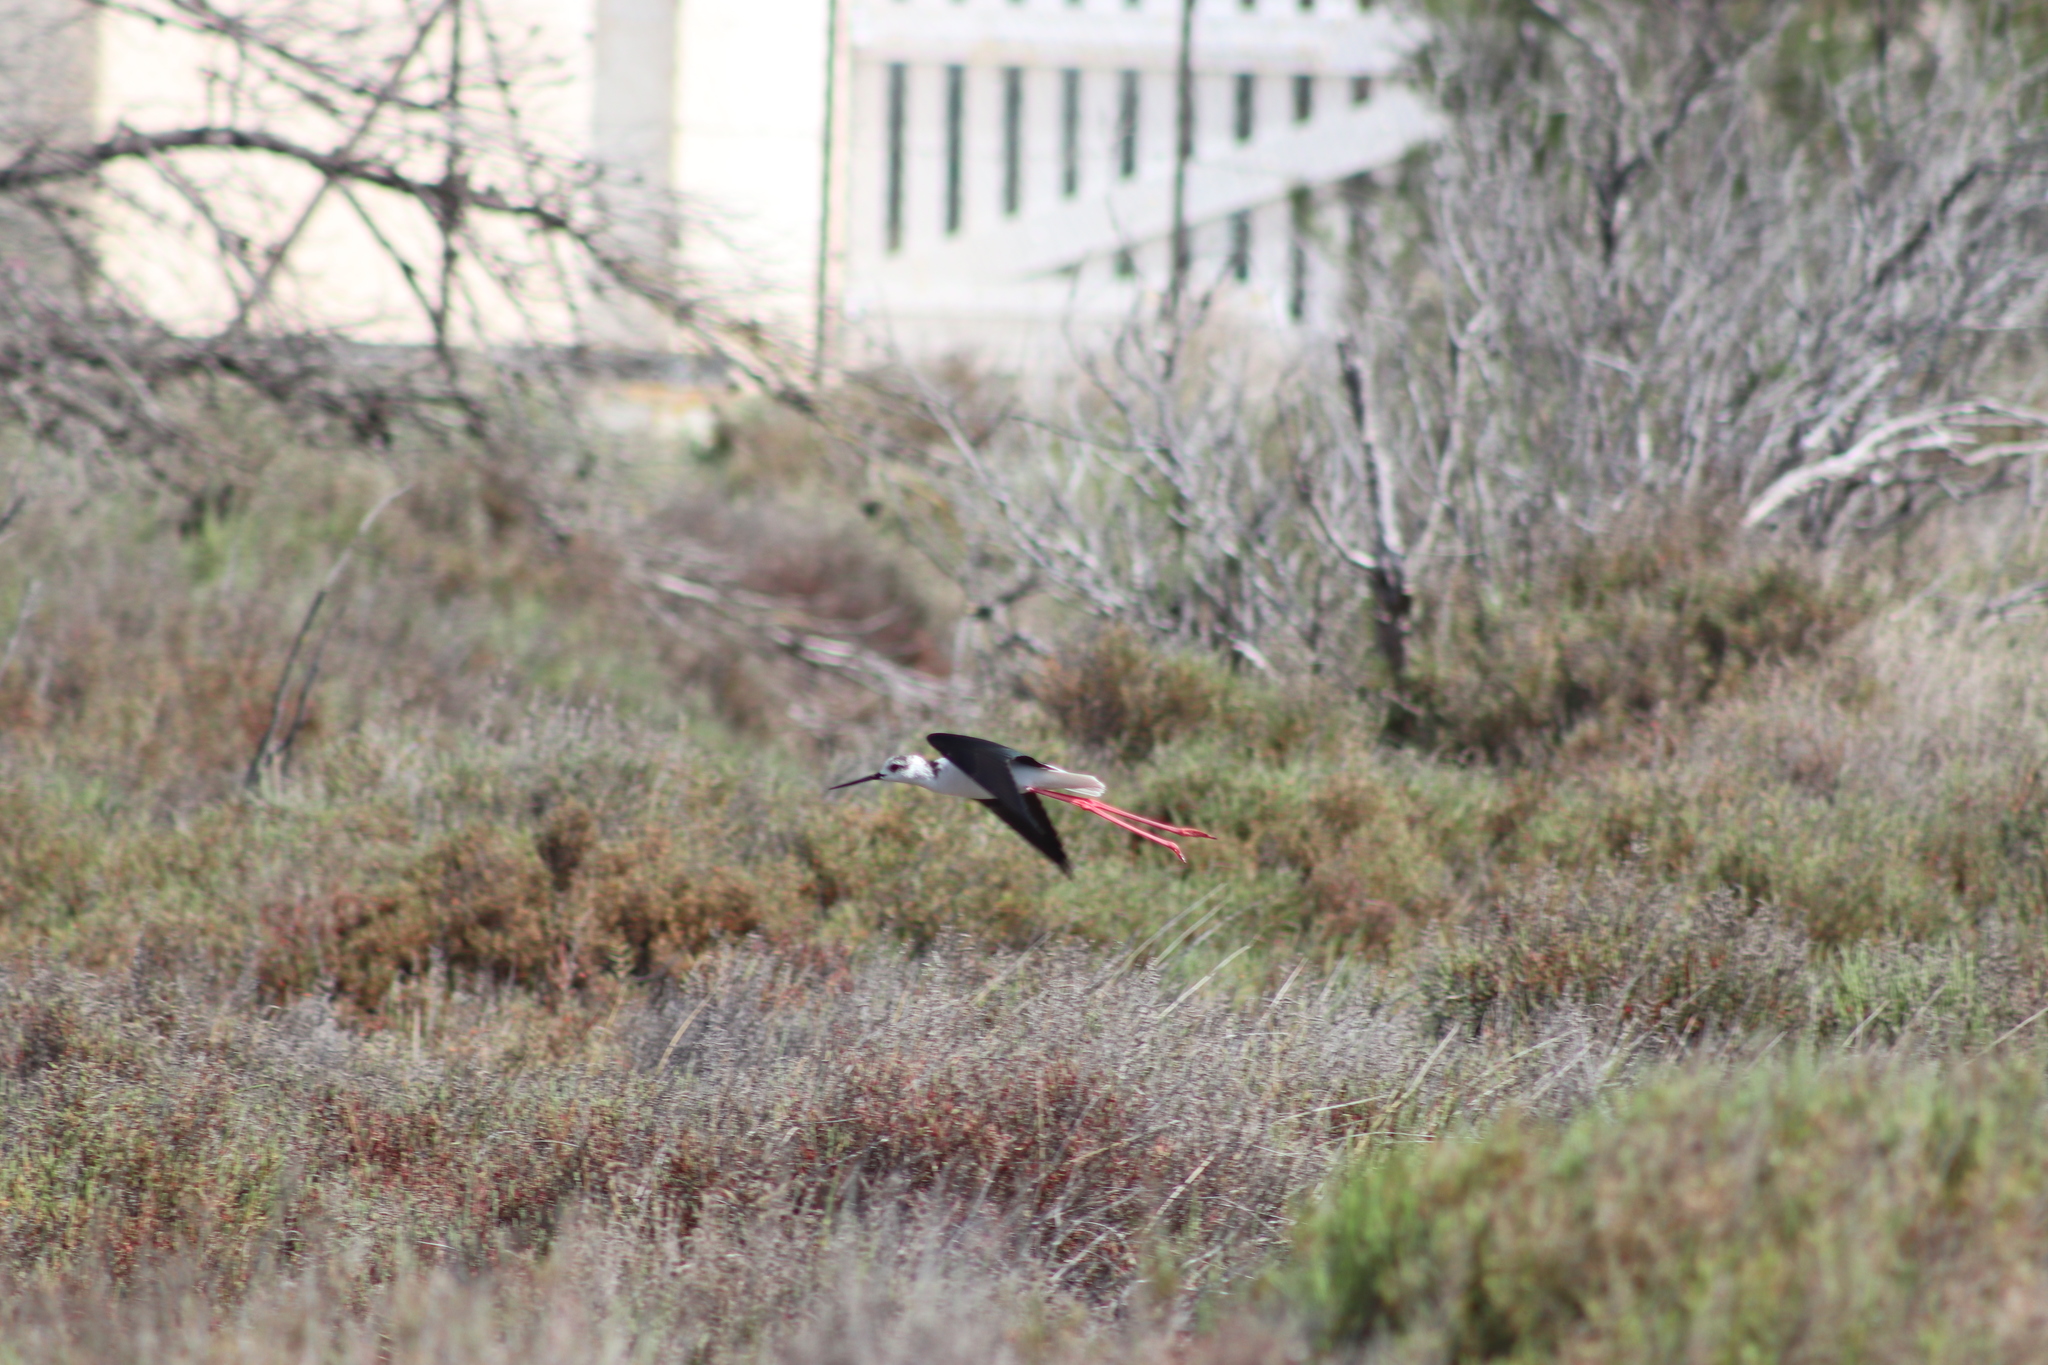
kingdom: Animalia
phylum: Chordata
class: Aves
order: Charadriiformes
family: Recurvirostridae
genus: Himantopus
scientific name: Himantopus himantopus
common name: Black-winged stilt
